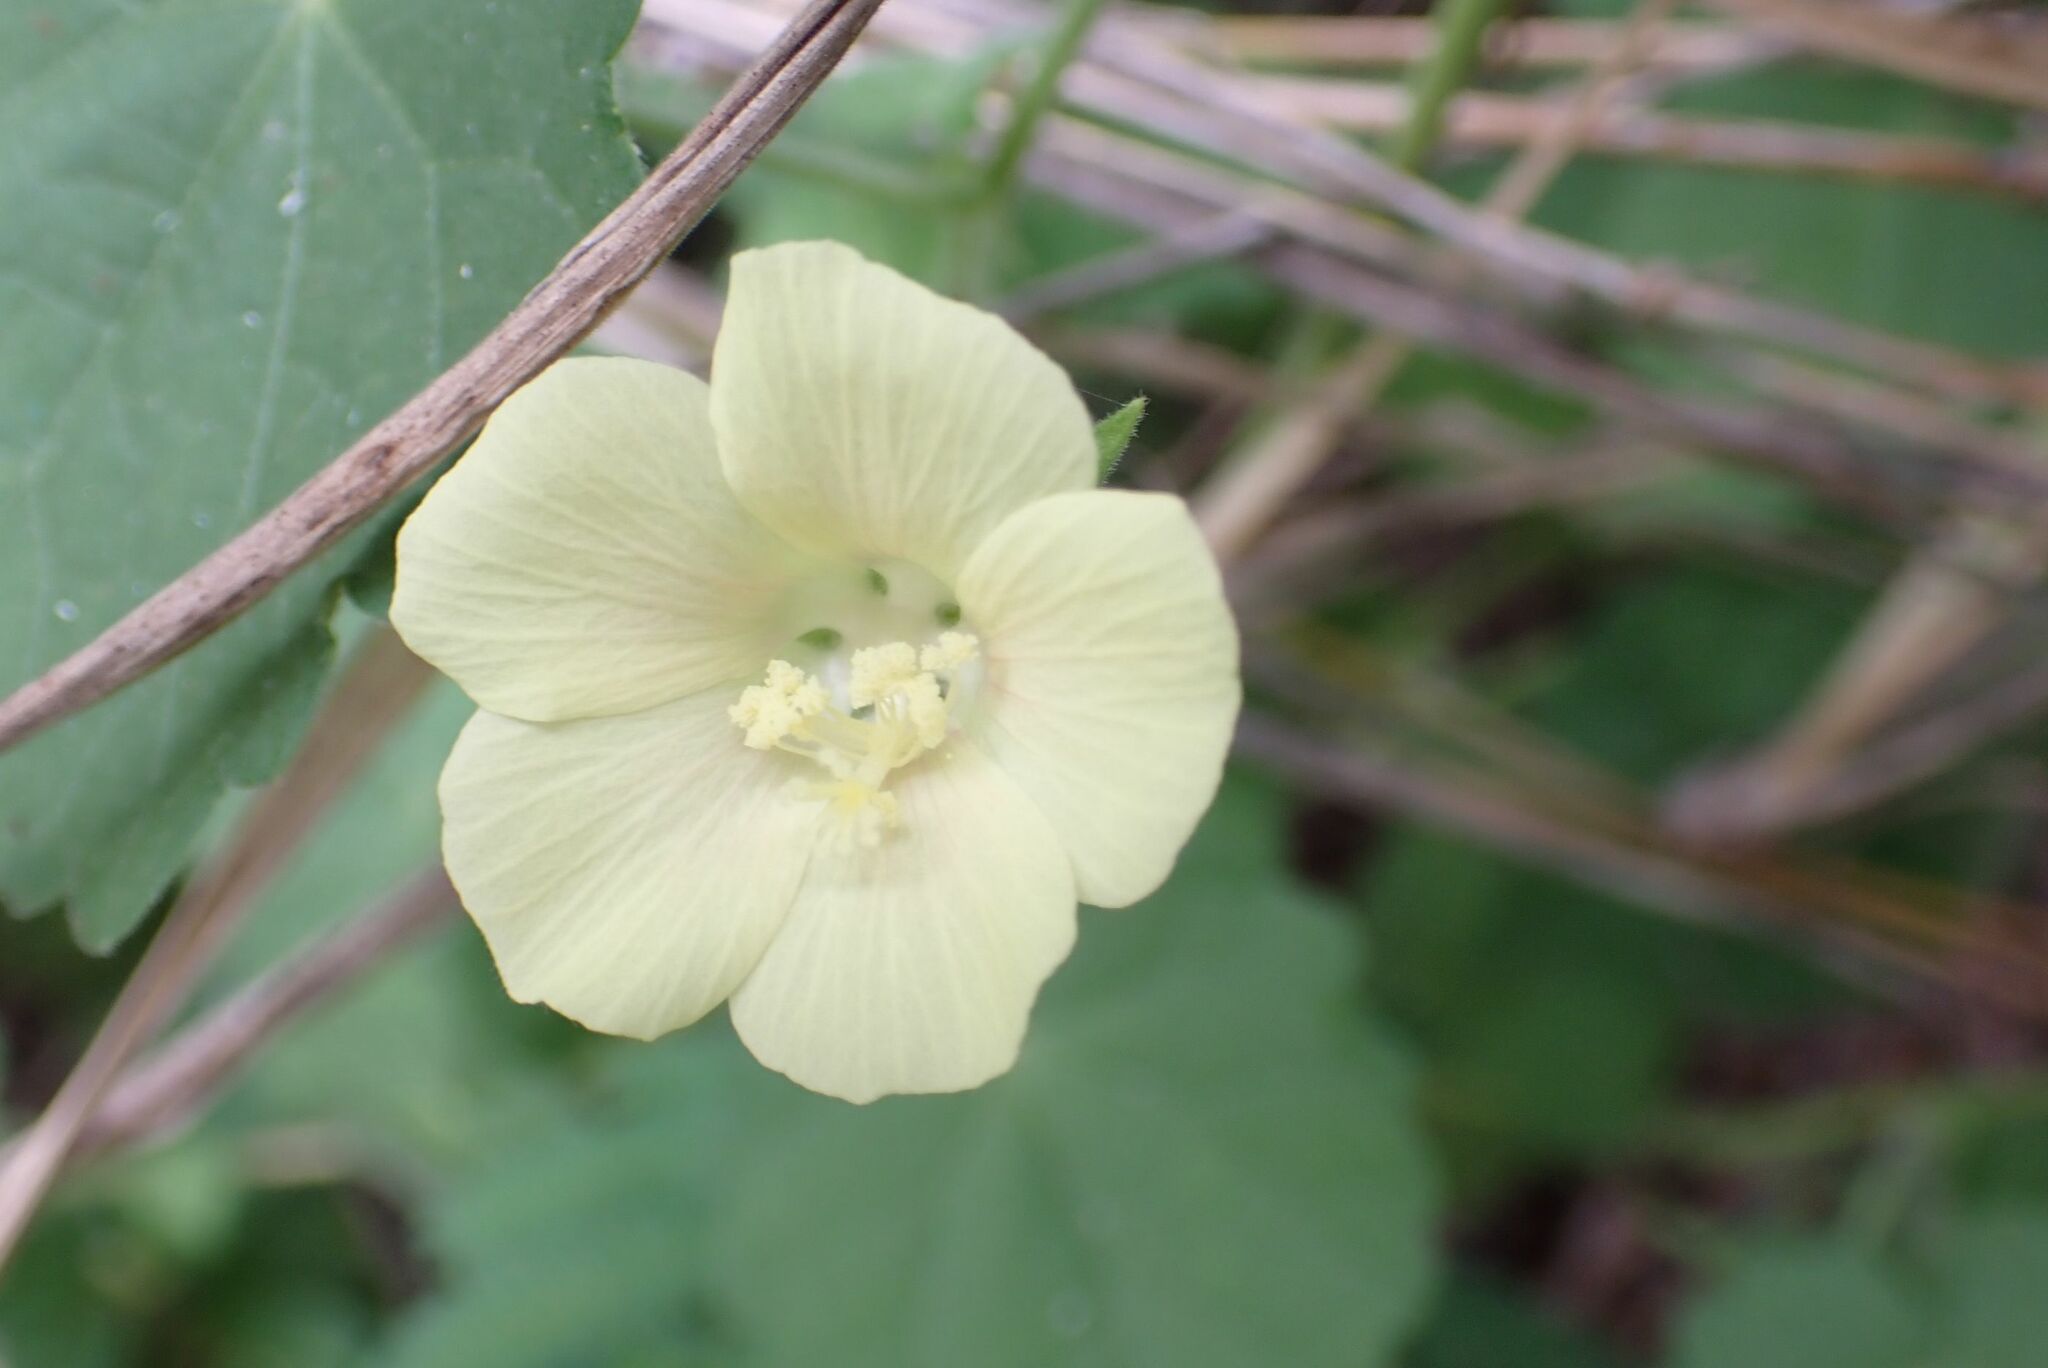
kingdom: Plantae
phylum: Tracheophyta
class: Magnoliopsida
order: Malvales
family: Malvaceae
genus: Pavonia
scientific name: Pavonia burchellii
